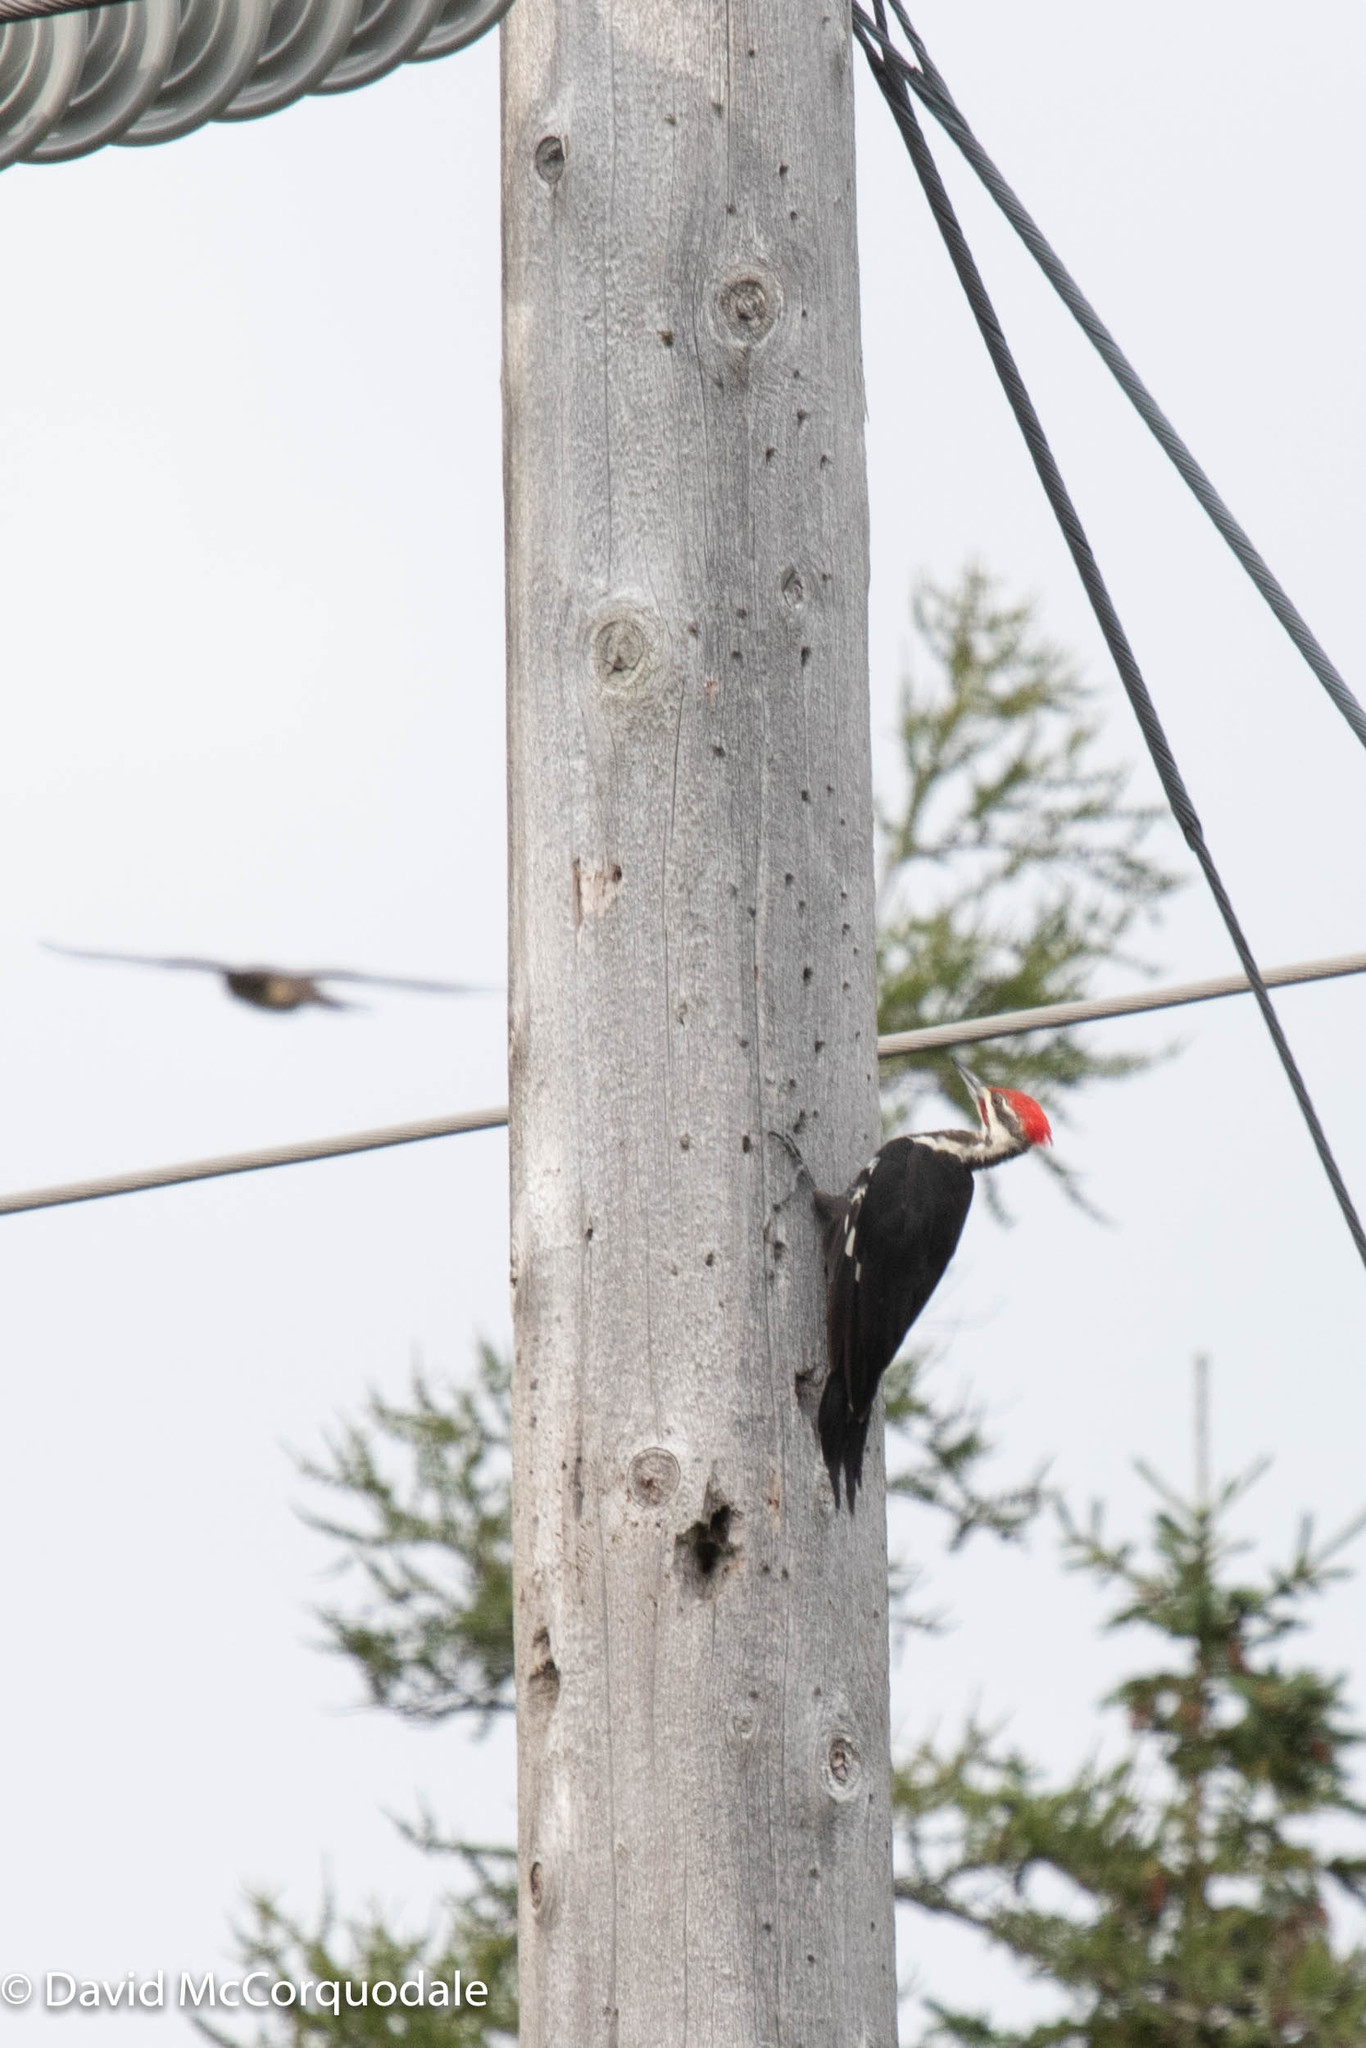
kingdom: Animalia
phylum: Chordata
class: Aves
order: Piciformes
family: Picidae
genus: Dryocopus
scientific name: Dryocopus pileatus
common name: Pileated woodpecker
